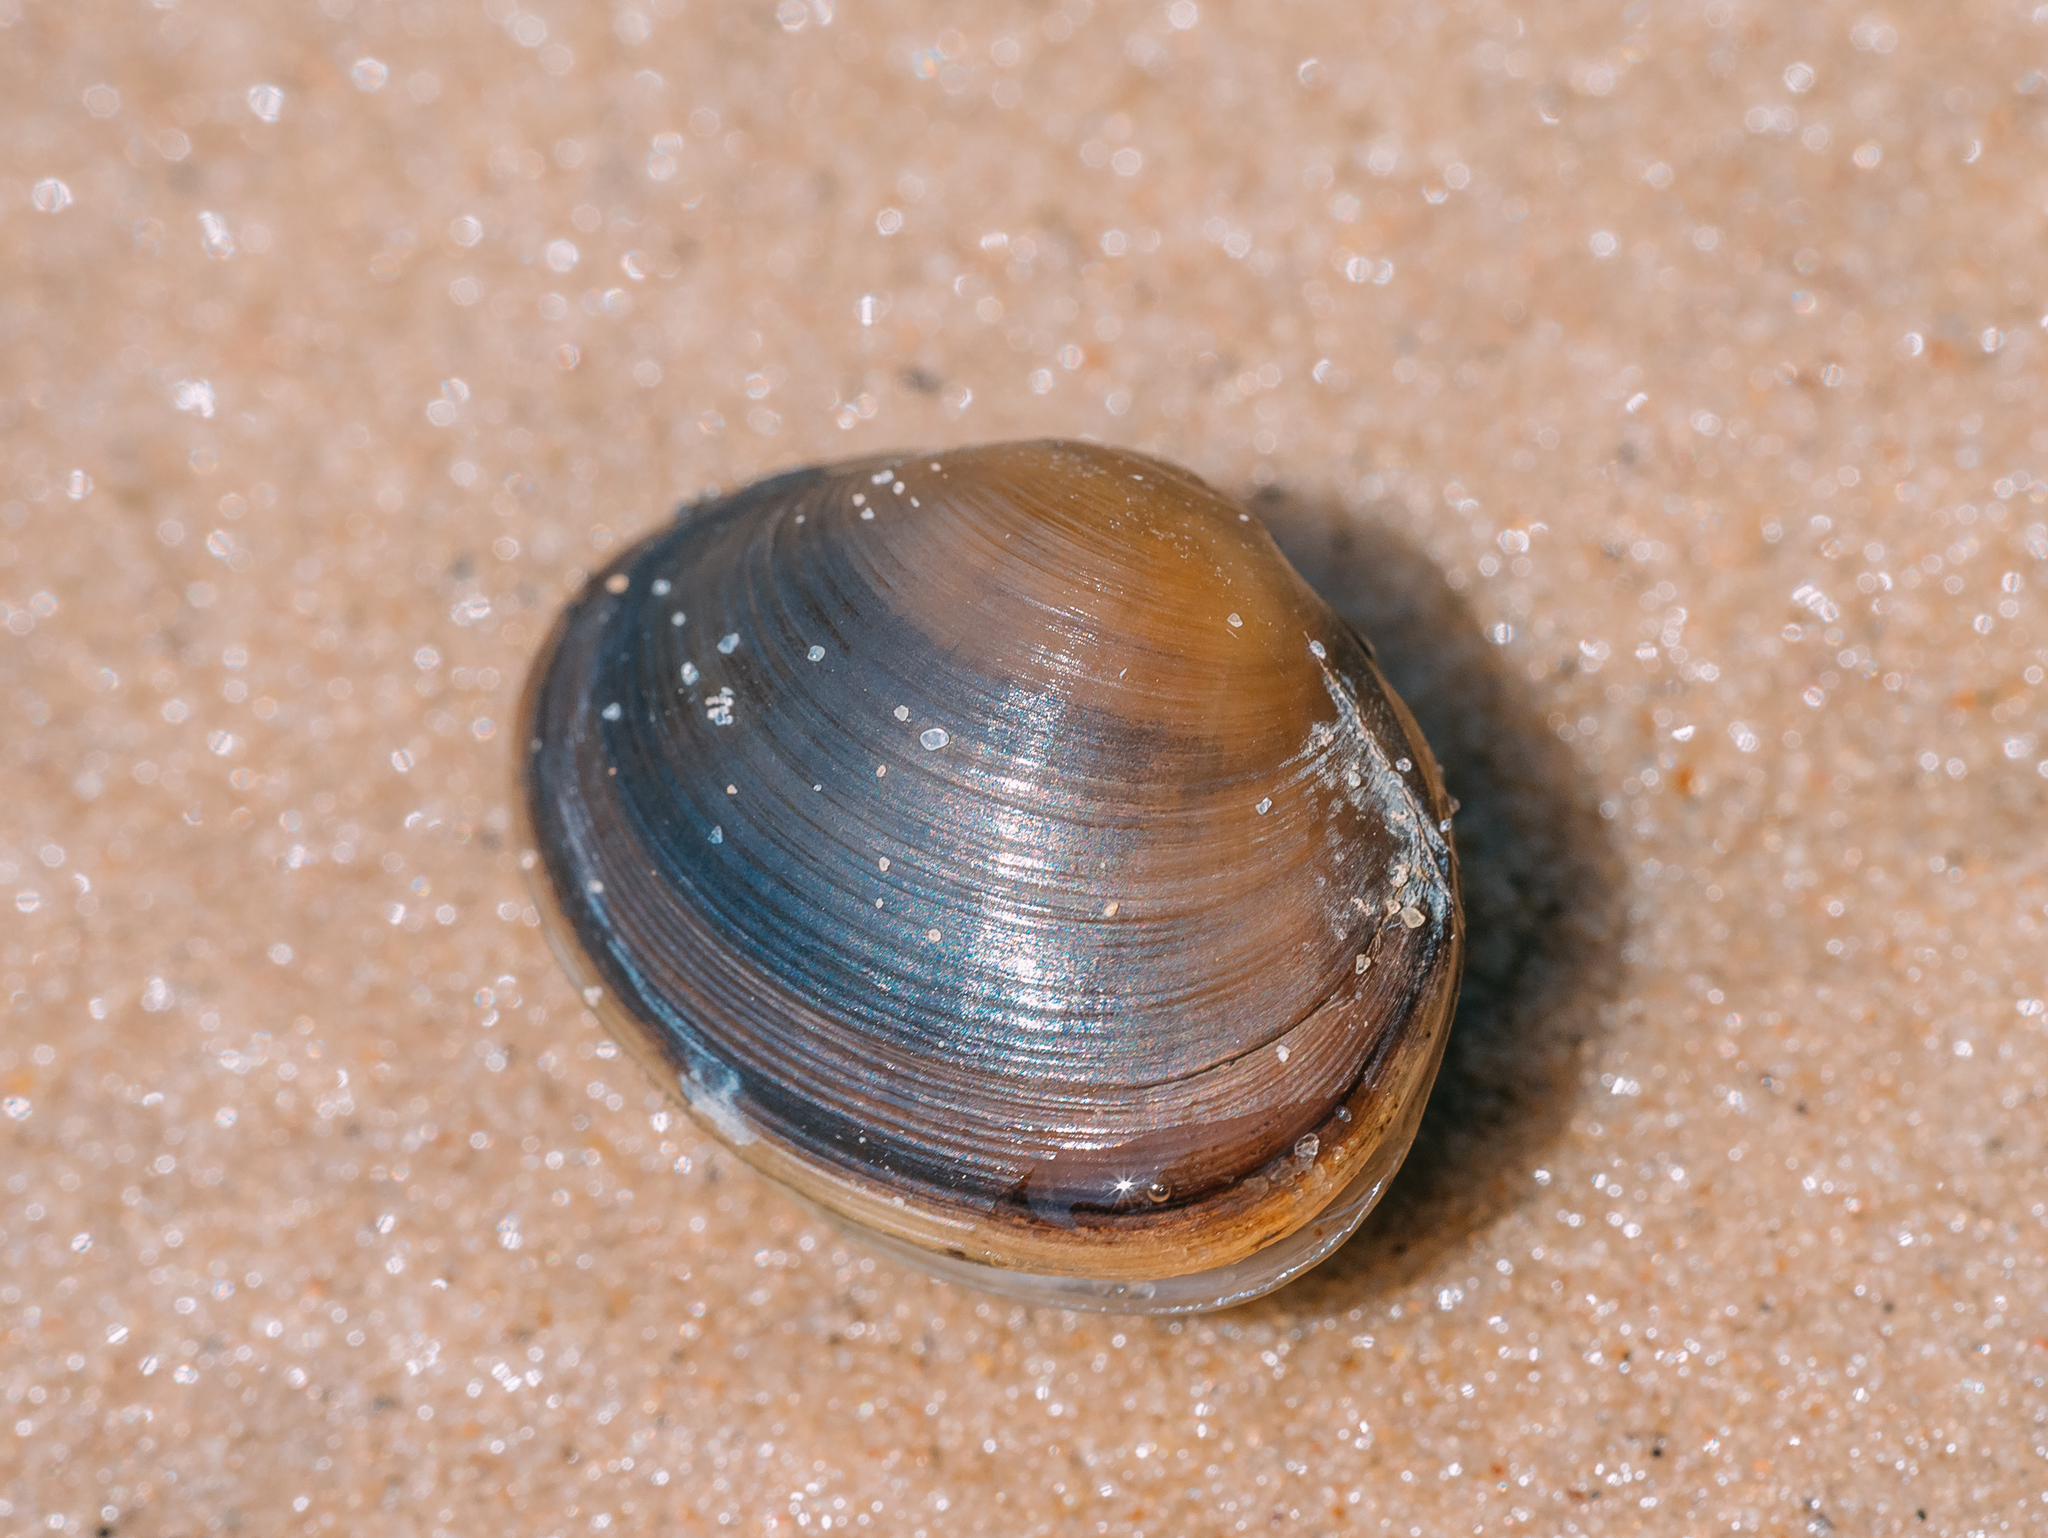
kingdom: Animalia
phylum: Mollusca
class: Bivalvia
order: Sphaeriida
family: Sphaeriidae
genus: Sphaerium
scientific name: Sphaerium rivicola
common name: Nut orb mussel
